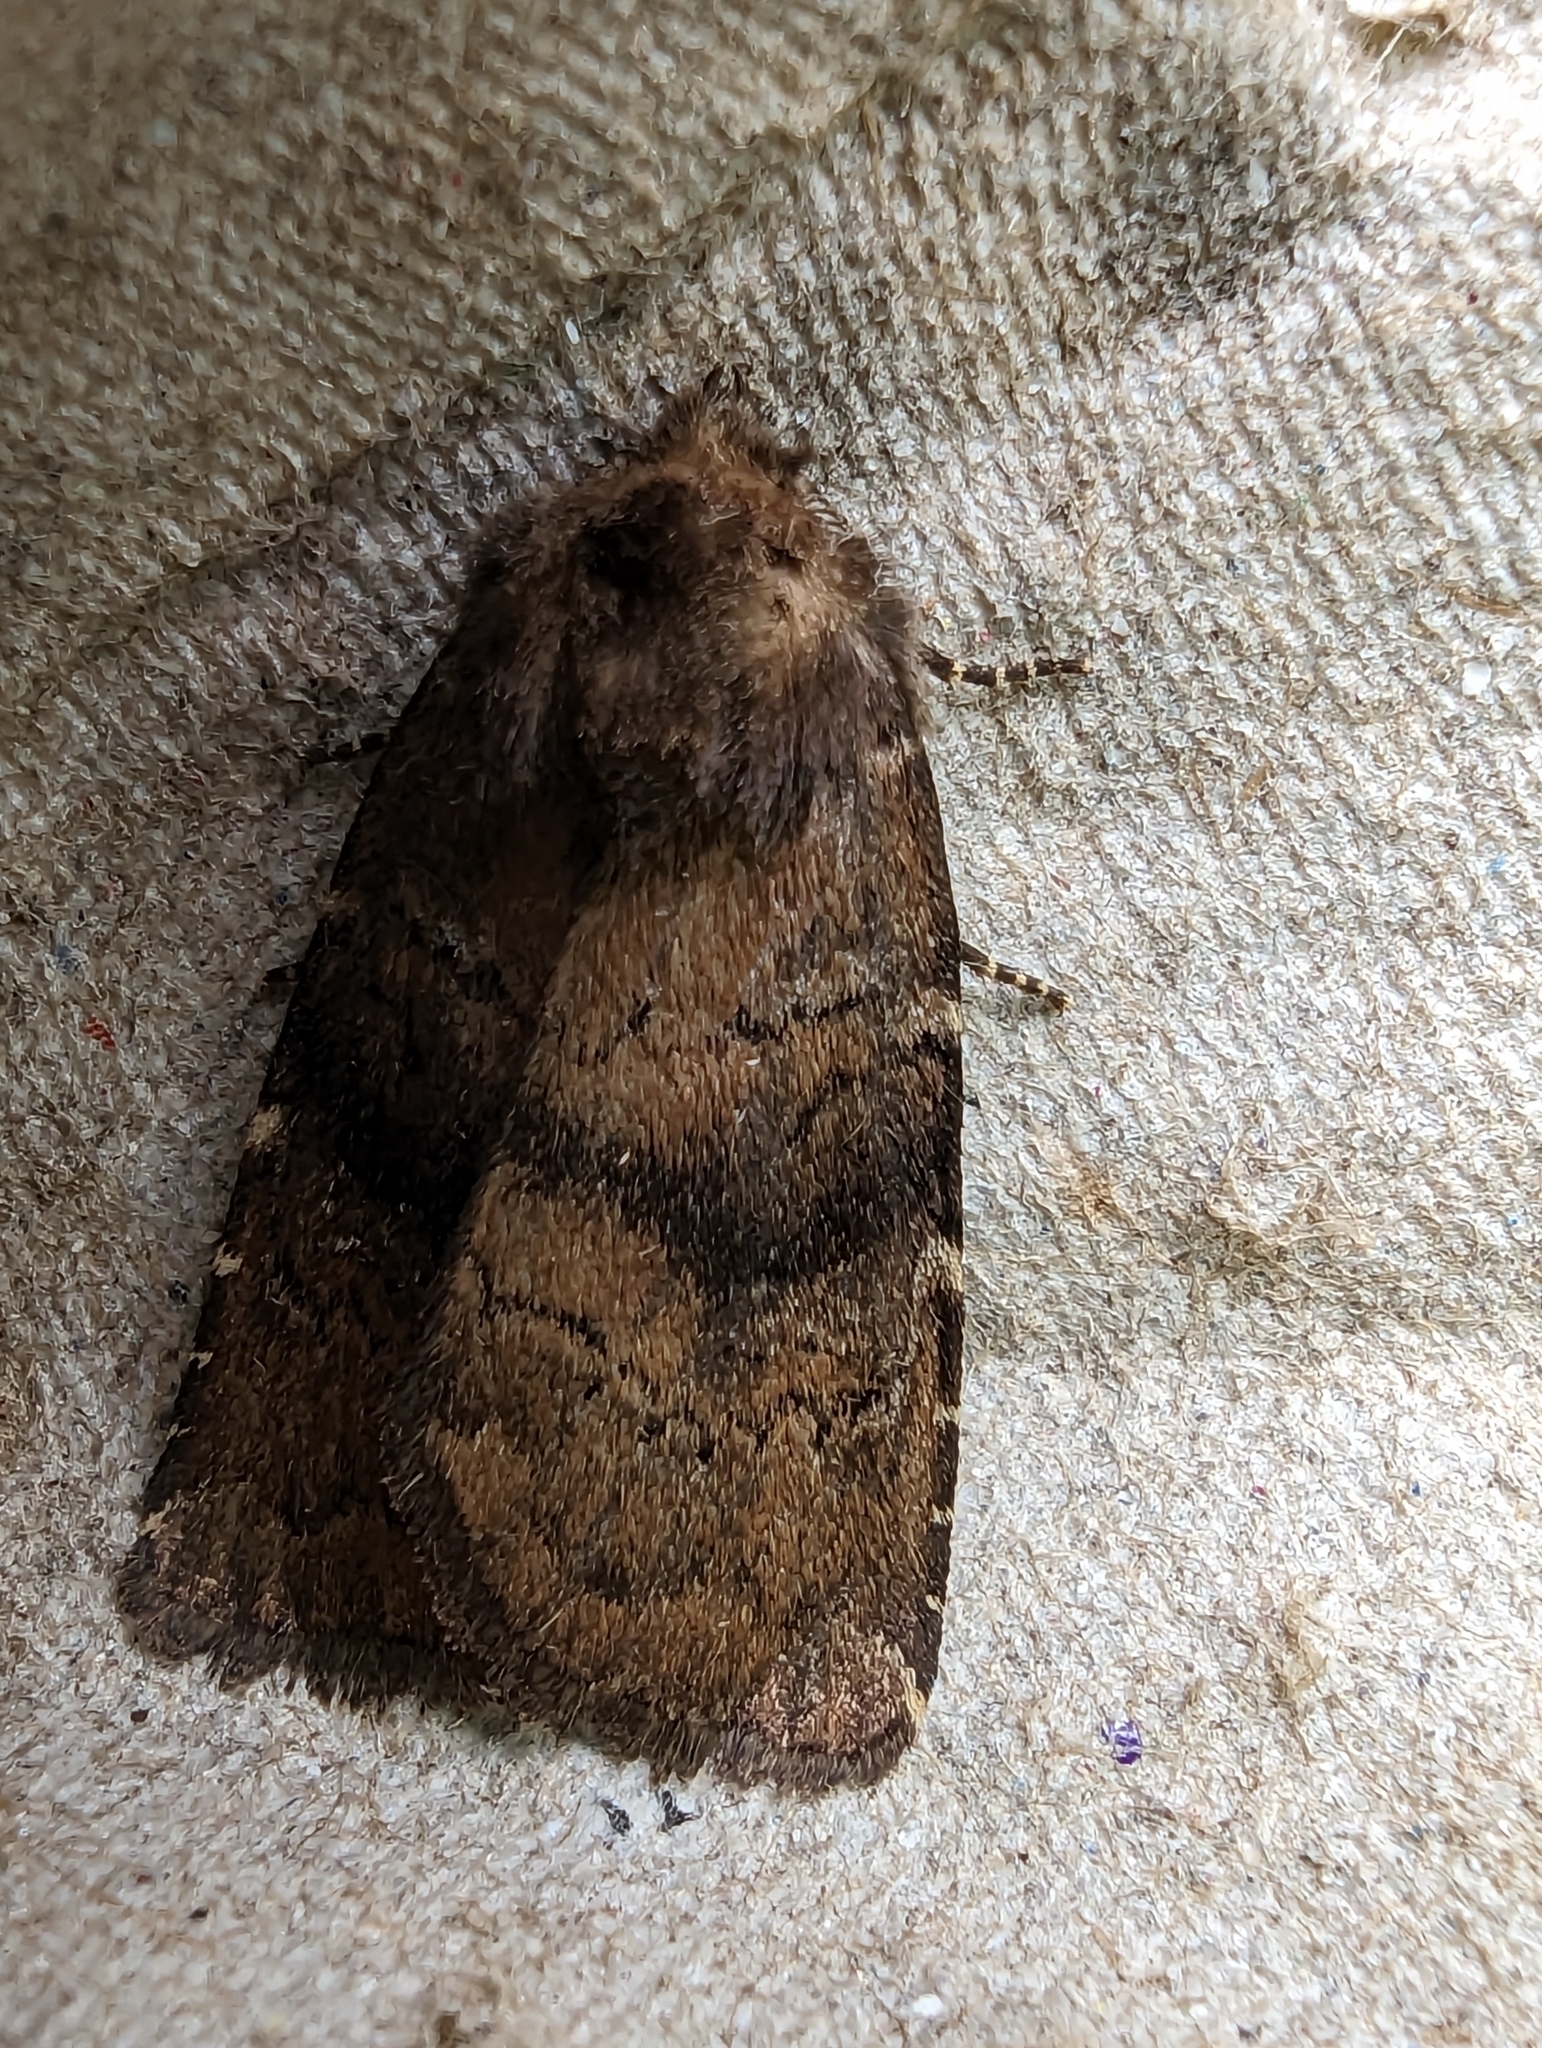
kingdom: Animalia
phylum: Arthropoda
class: Insecta
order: Lepidoptera
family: Noctuidae
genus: Charanyca
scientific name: Charanyca ferruginea
